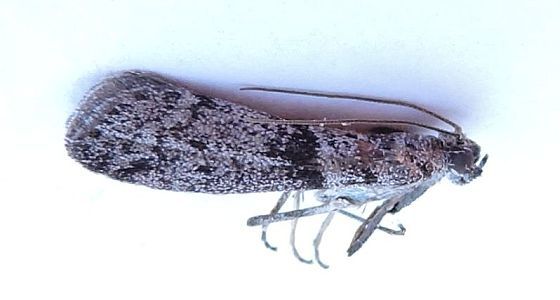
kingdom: Animalia
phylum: Arthropoda
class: Insecta
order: Lepidoptera
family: Pyralidae
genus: Myelopsis
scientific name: Myelopsis minutularia
